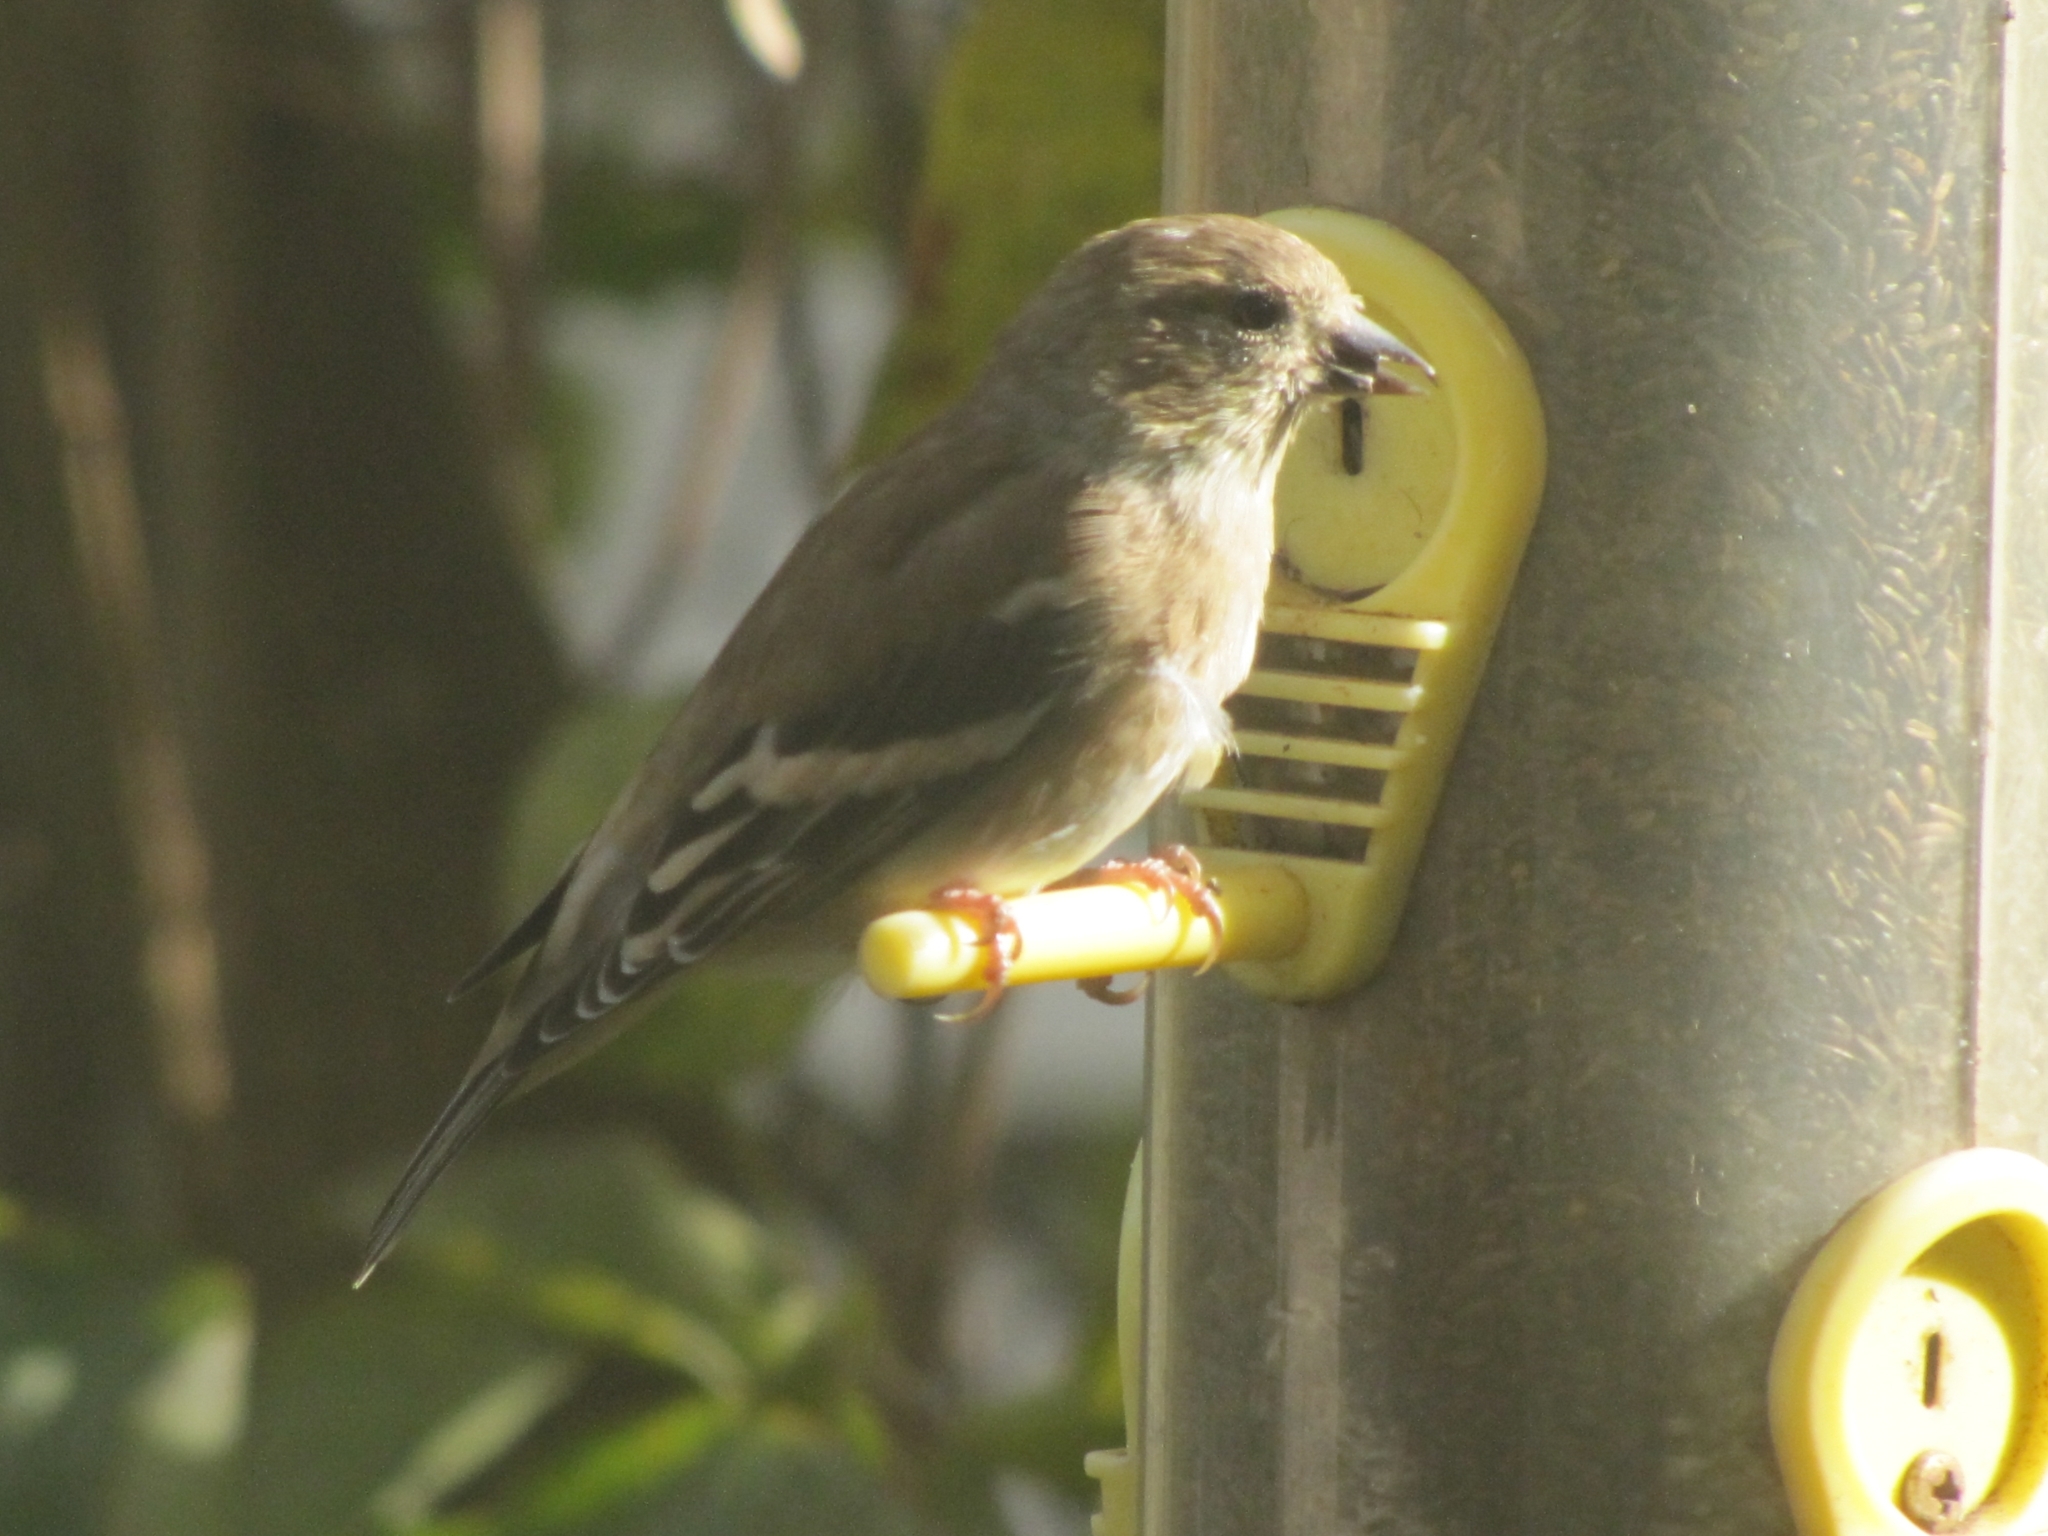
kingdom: Animalia
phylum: Chordata
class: Aves
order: Passeriformes
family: Fringillidae
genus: Spinus
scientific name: Spinus tristis
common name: American goldfinch
